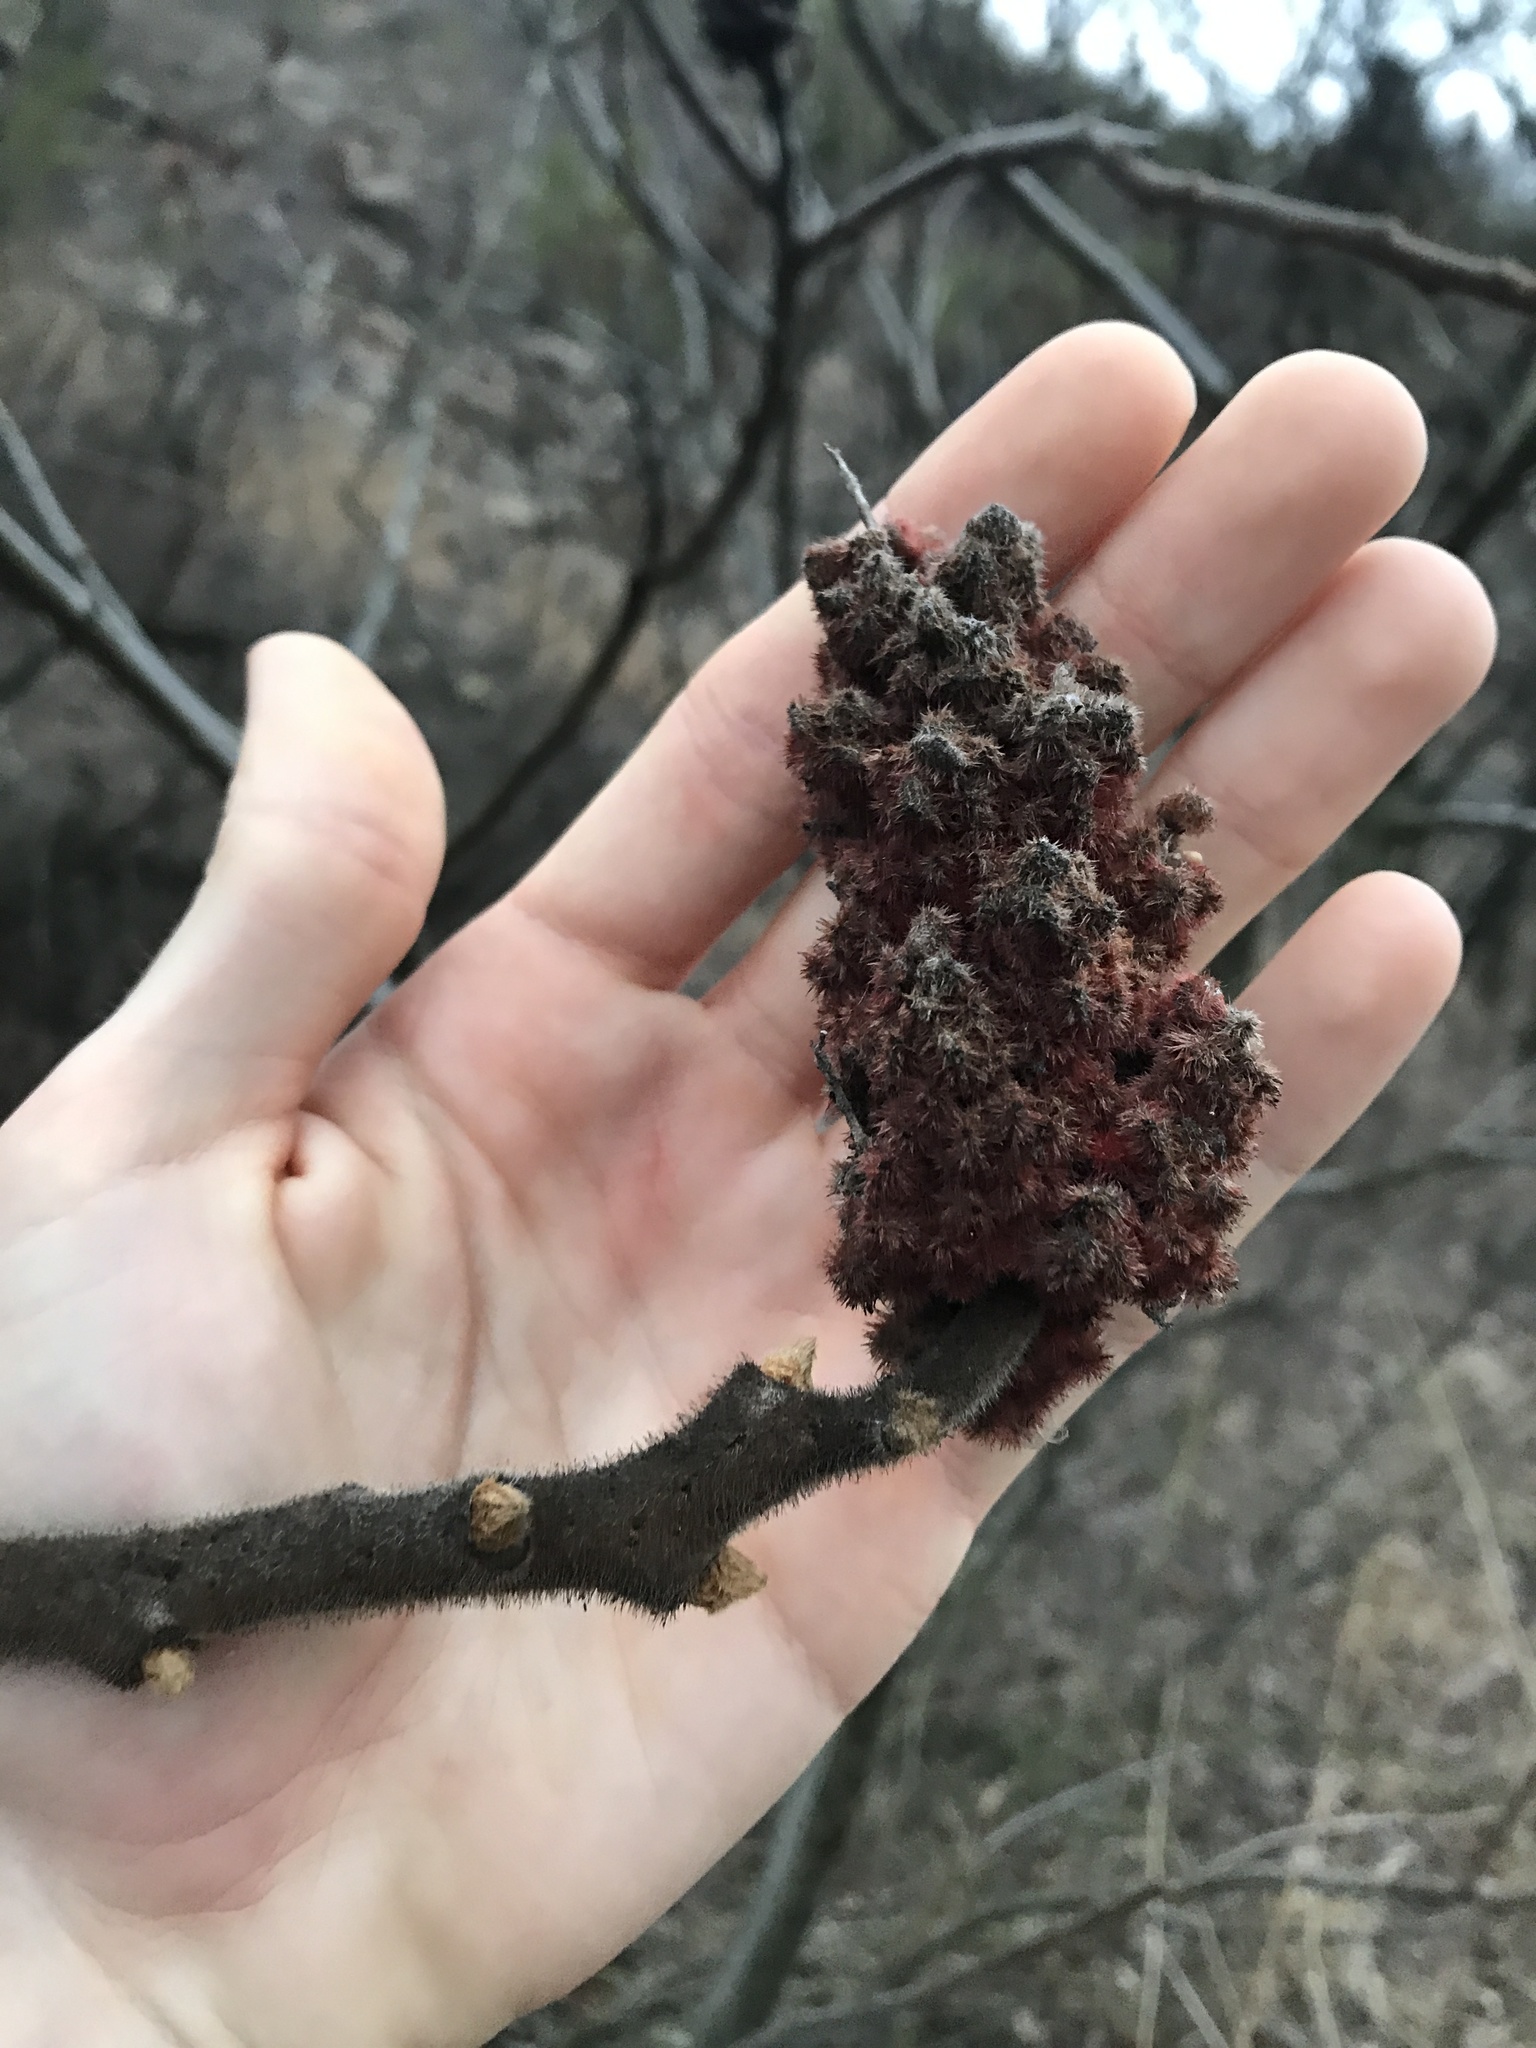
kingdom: Plantae
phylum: Tracheophyta
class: Magnoliopsida
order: Sapindales
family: Anacardiaceae
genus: Rhus
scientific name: Rhus typhina
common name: Staghorn sumac
